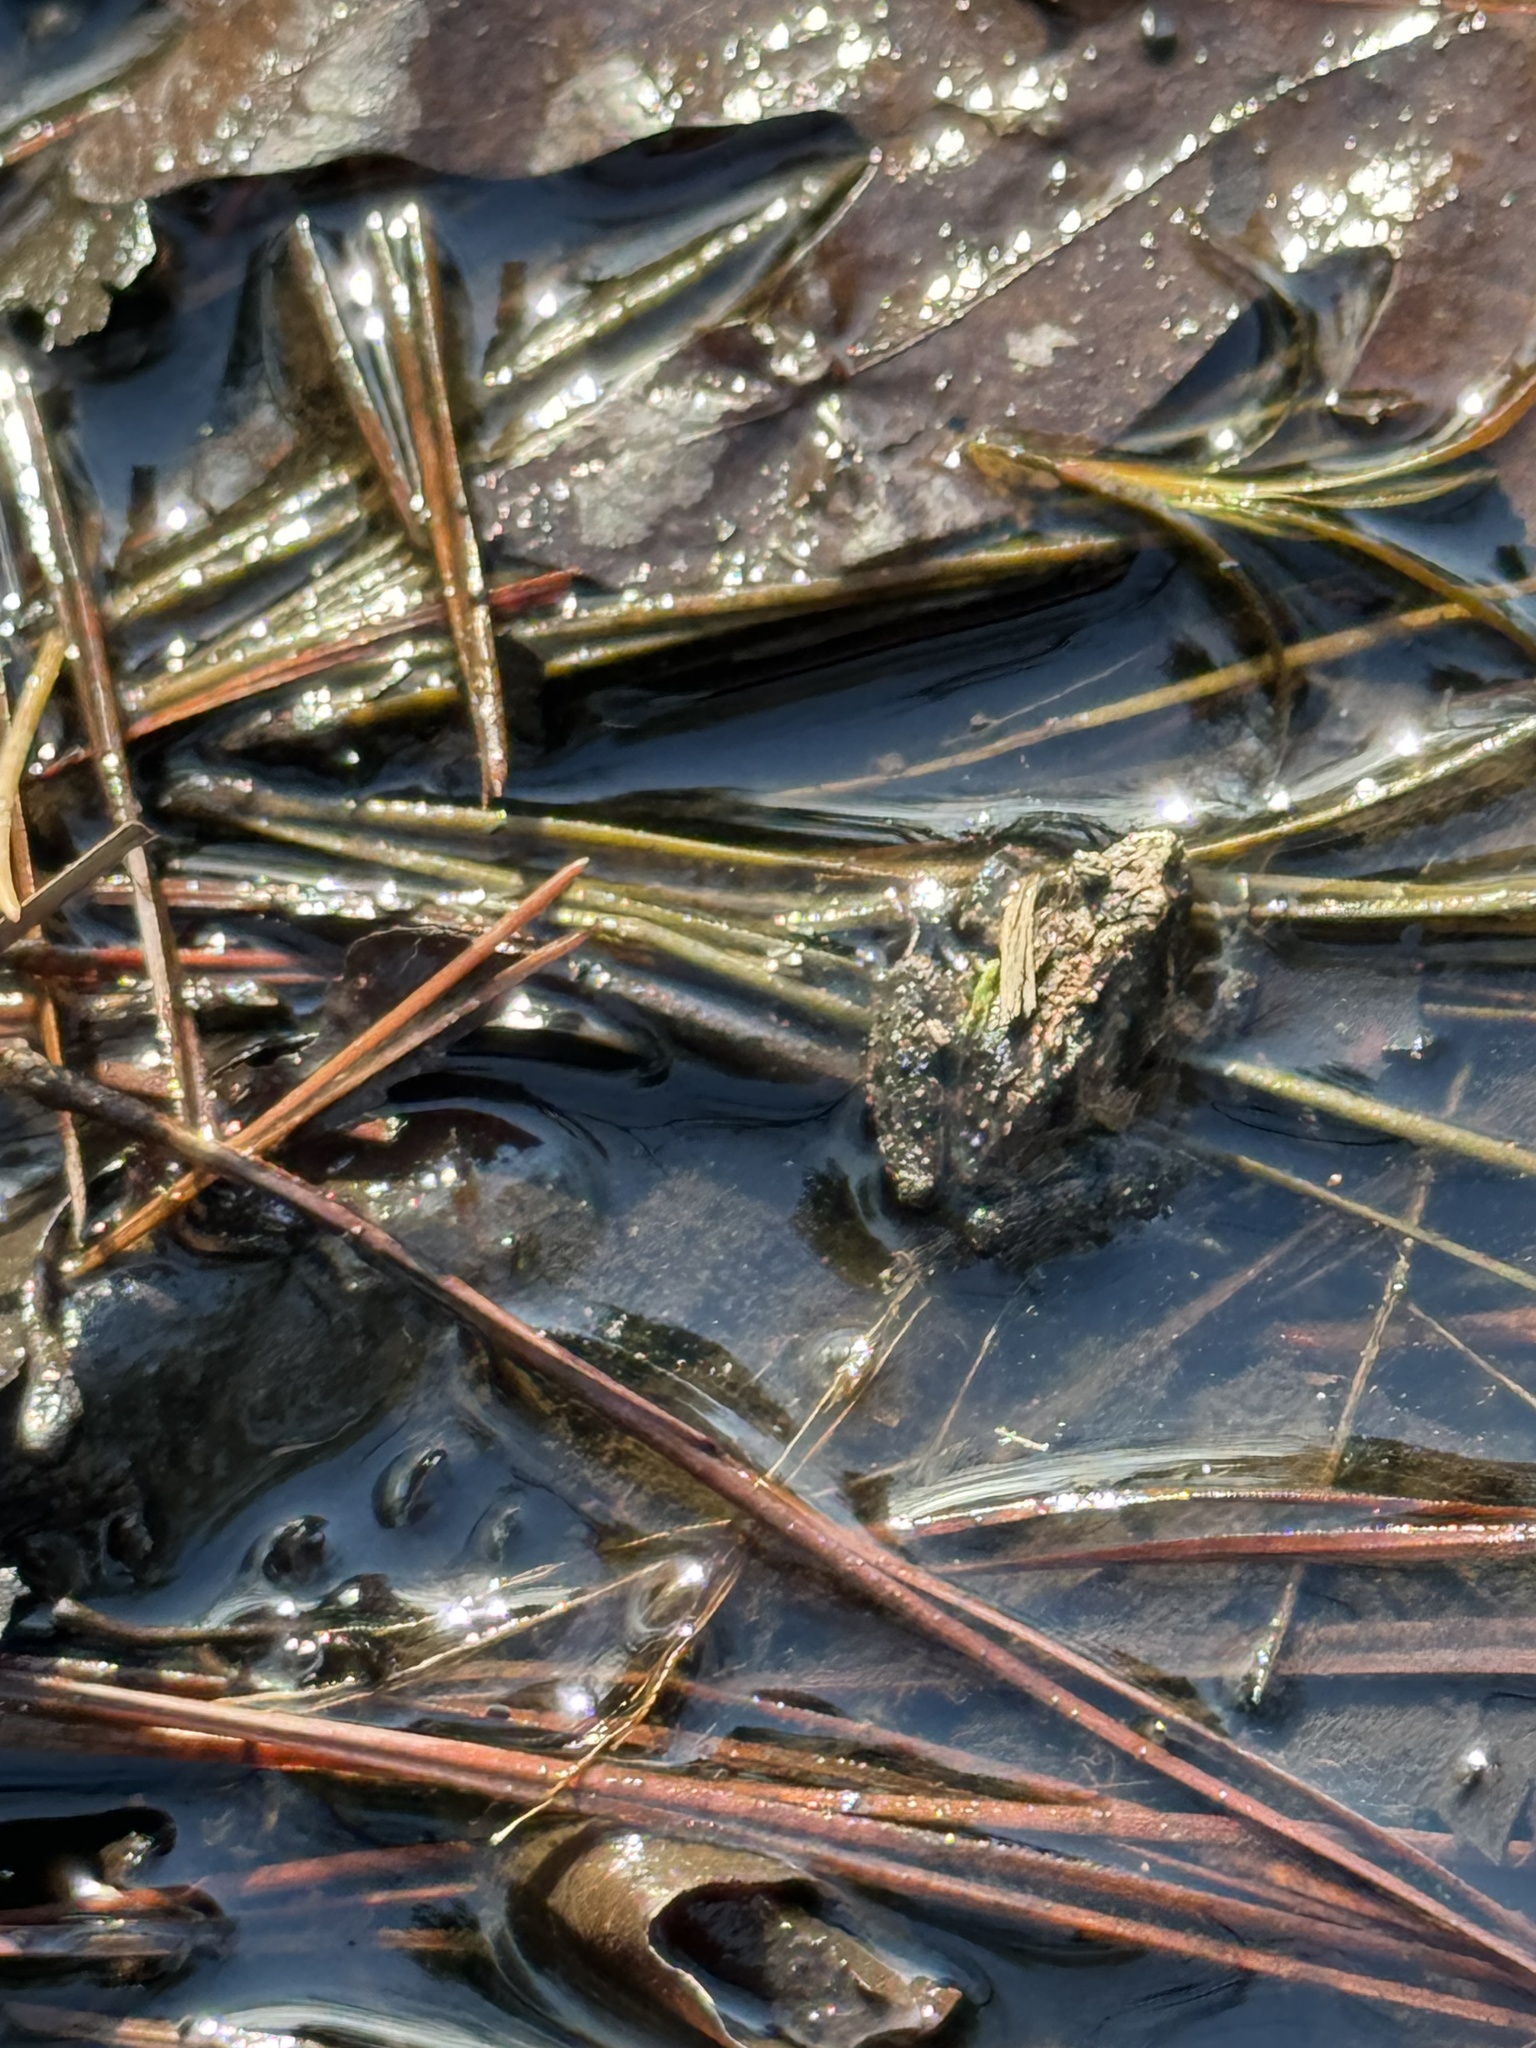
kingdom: Animalia
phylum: Chordata
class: Amphibia
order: Anura
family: Hylidae
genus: Acris
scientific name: Acris crepitans
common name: Northern cricket frog
